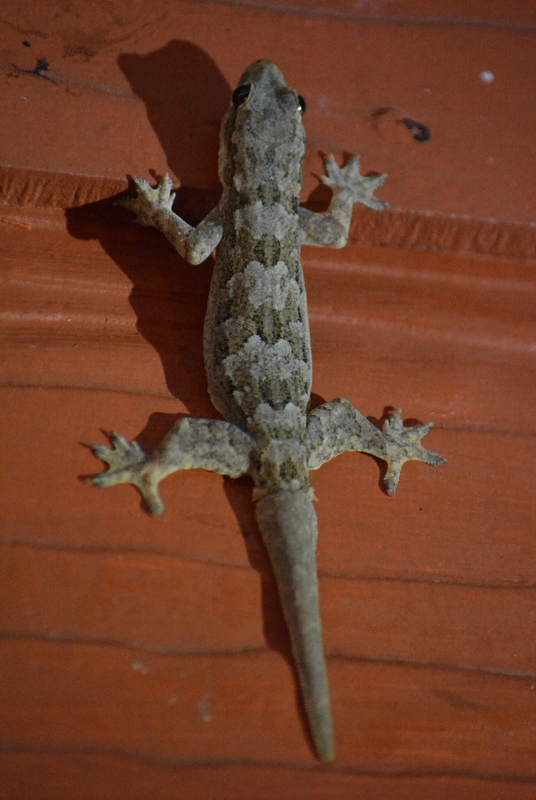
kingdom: Animalia
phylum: Chordata
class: Squamata
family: Gekkonidae
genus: Hemidactylus
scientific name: Hemidactylus platyurus
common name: Flat-tailed house gecko
